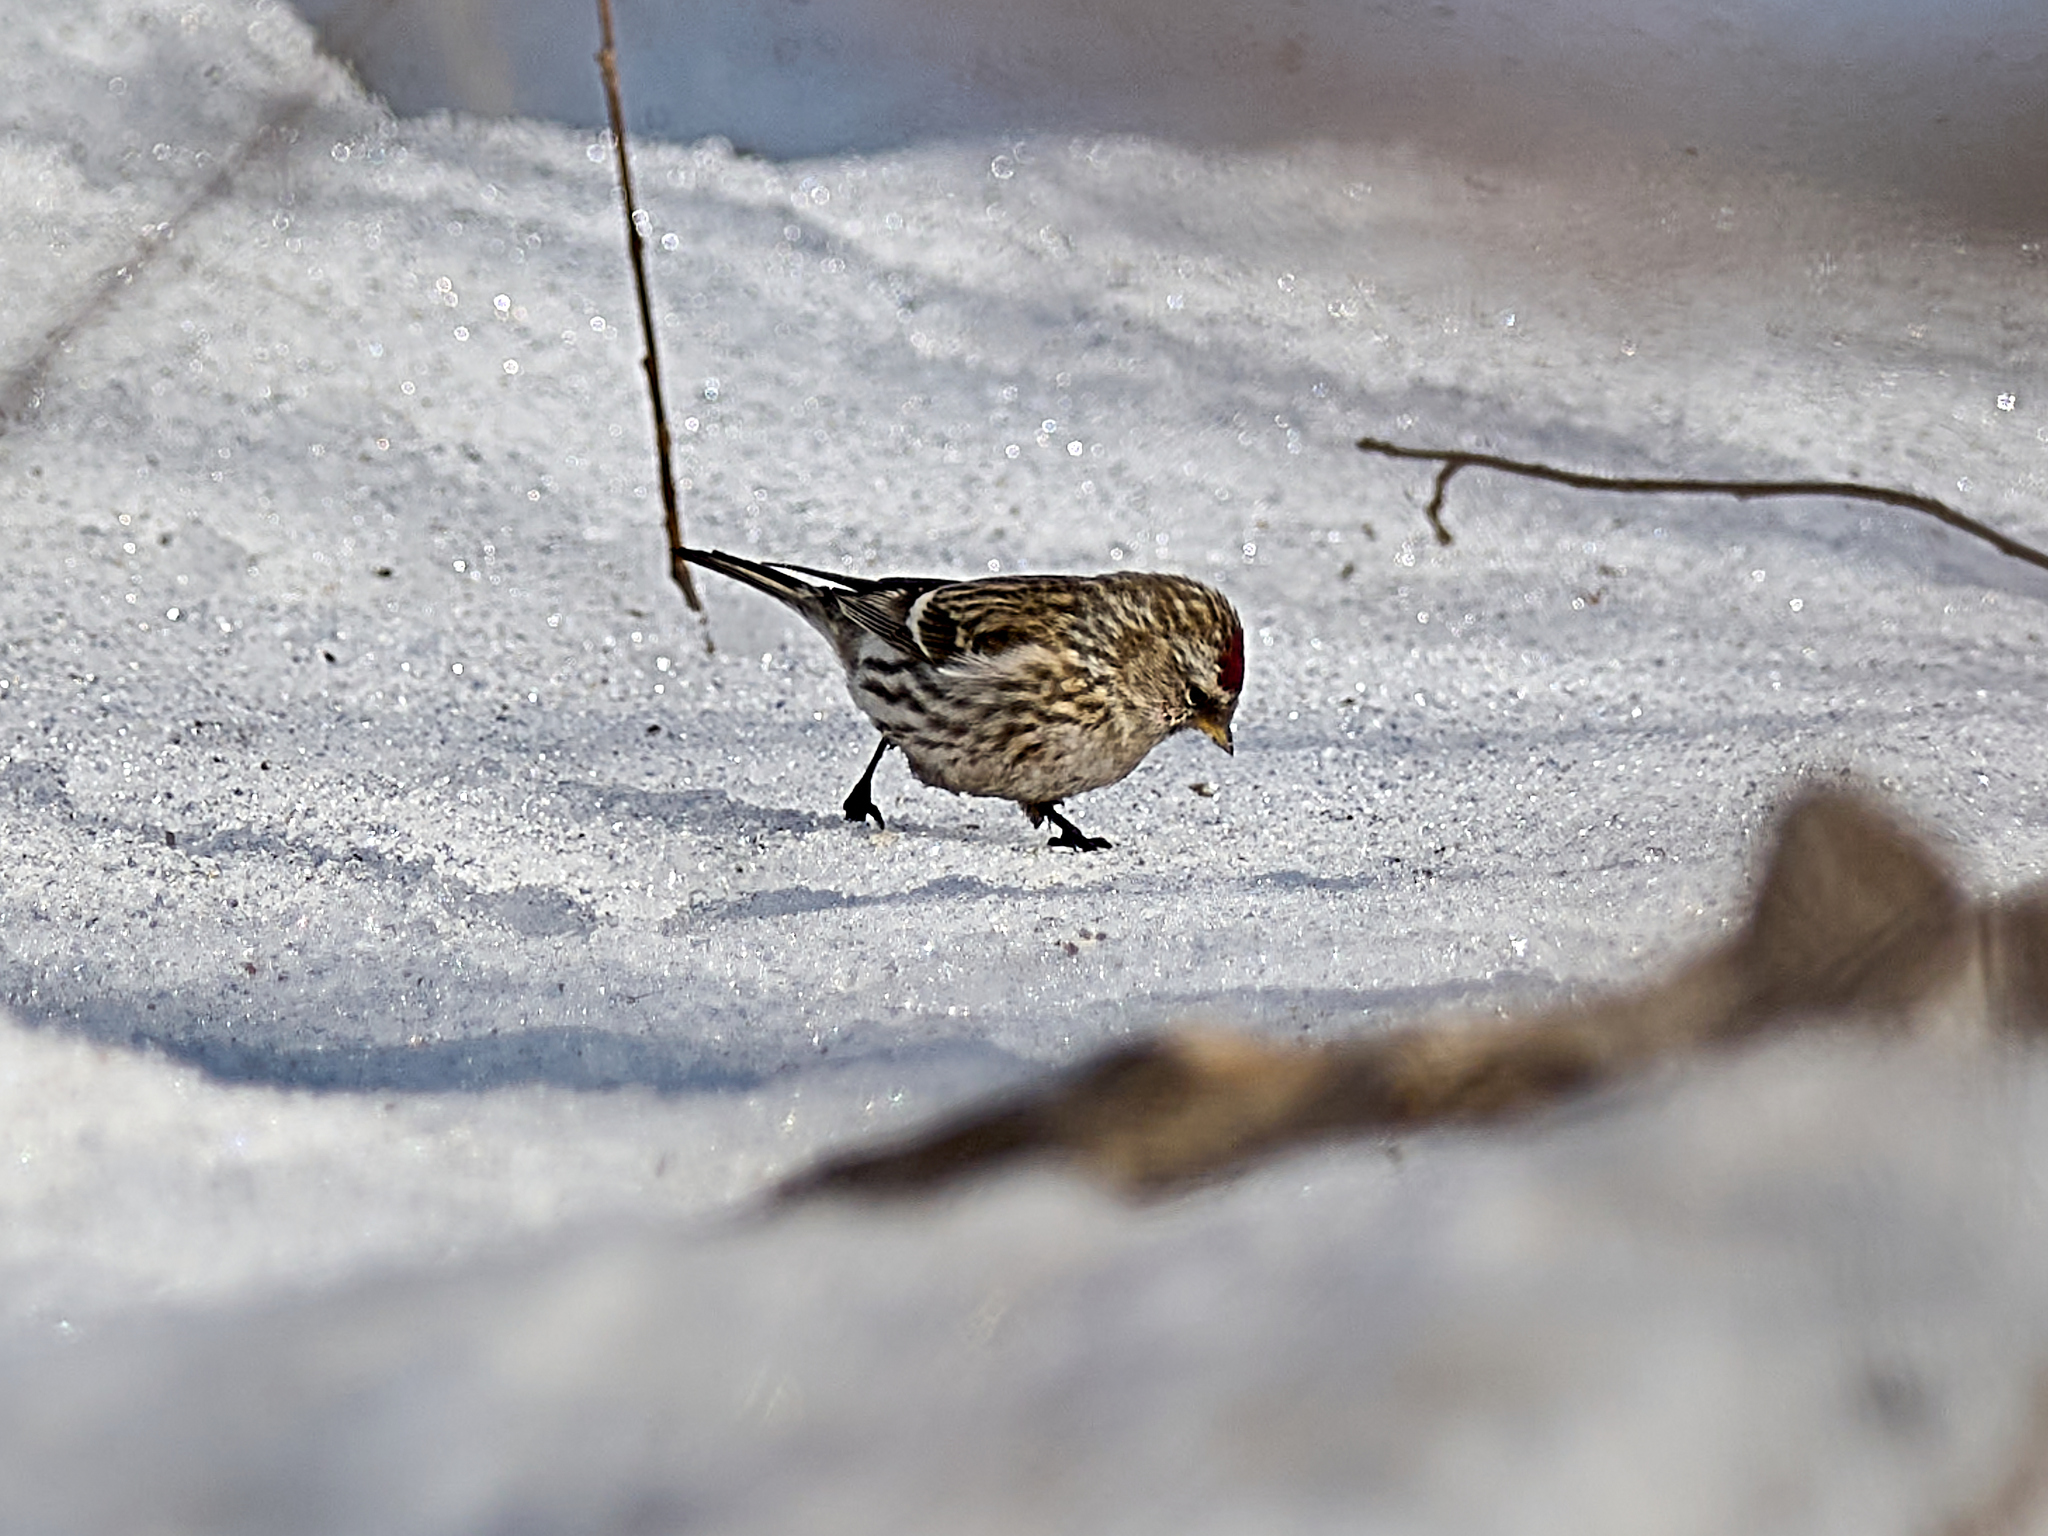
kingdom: Animalia
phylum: Chordata
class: Aves
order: Passeriformes
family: Fringillidae
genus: Acanthis
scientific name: Acanthis flammea
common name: Common redpoll
